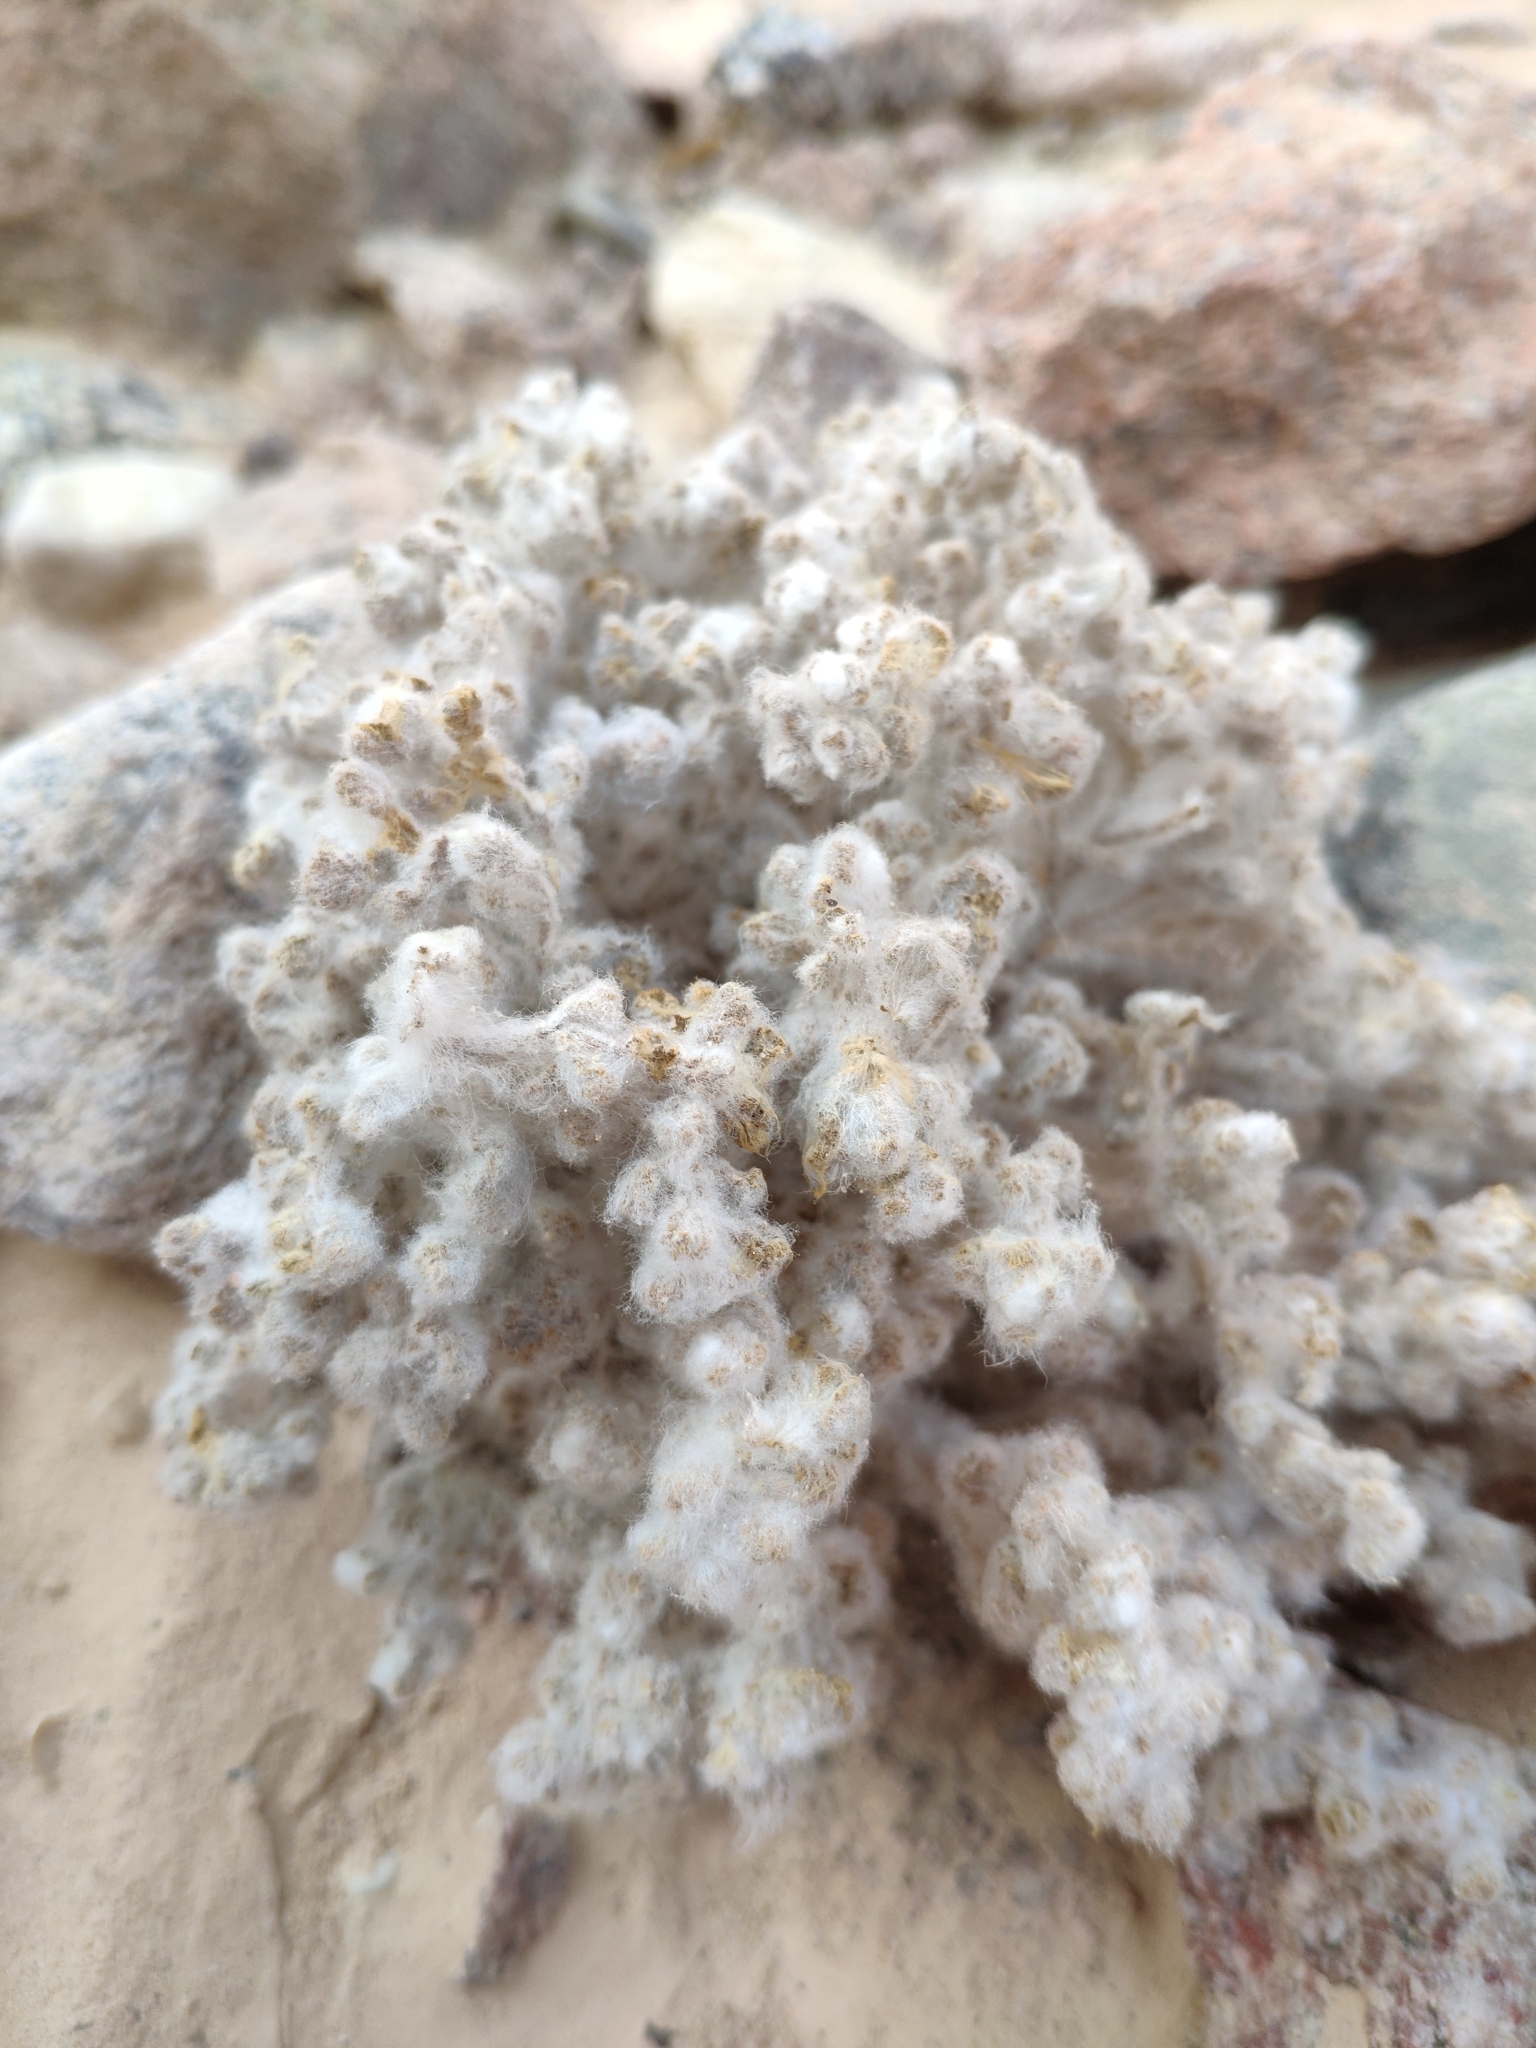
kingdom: Plantae
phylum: Tracheophyta
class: Magnoliopsida
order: Caryophyllales
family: Amaranthaceae
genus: Bassia
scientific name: Bassia arabica
